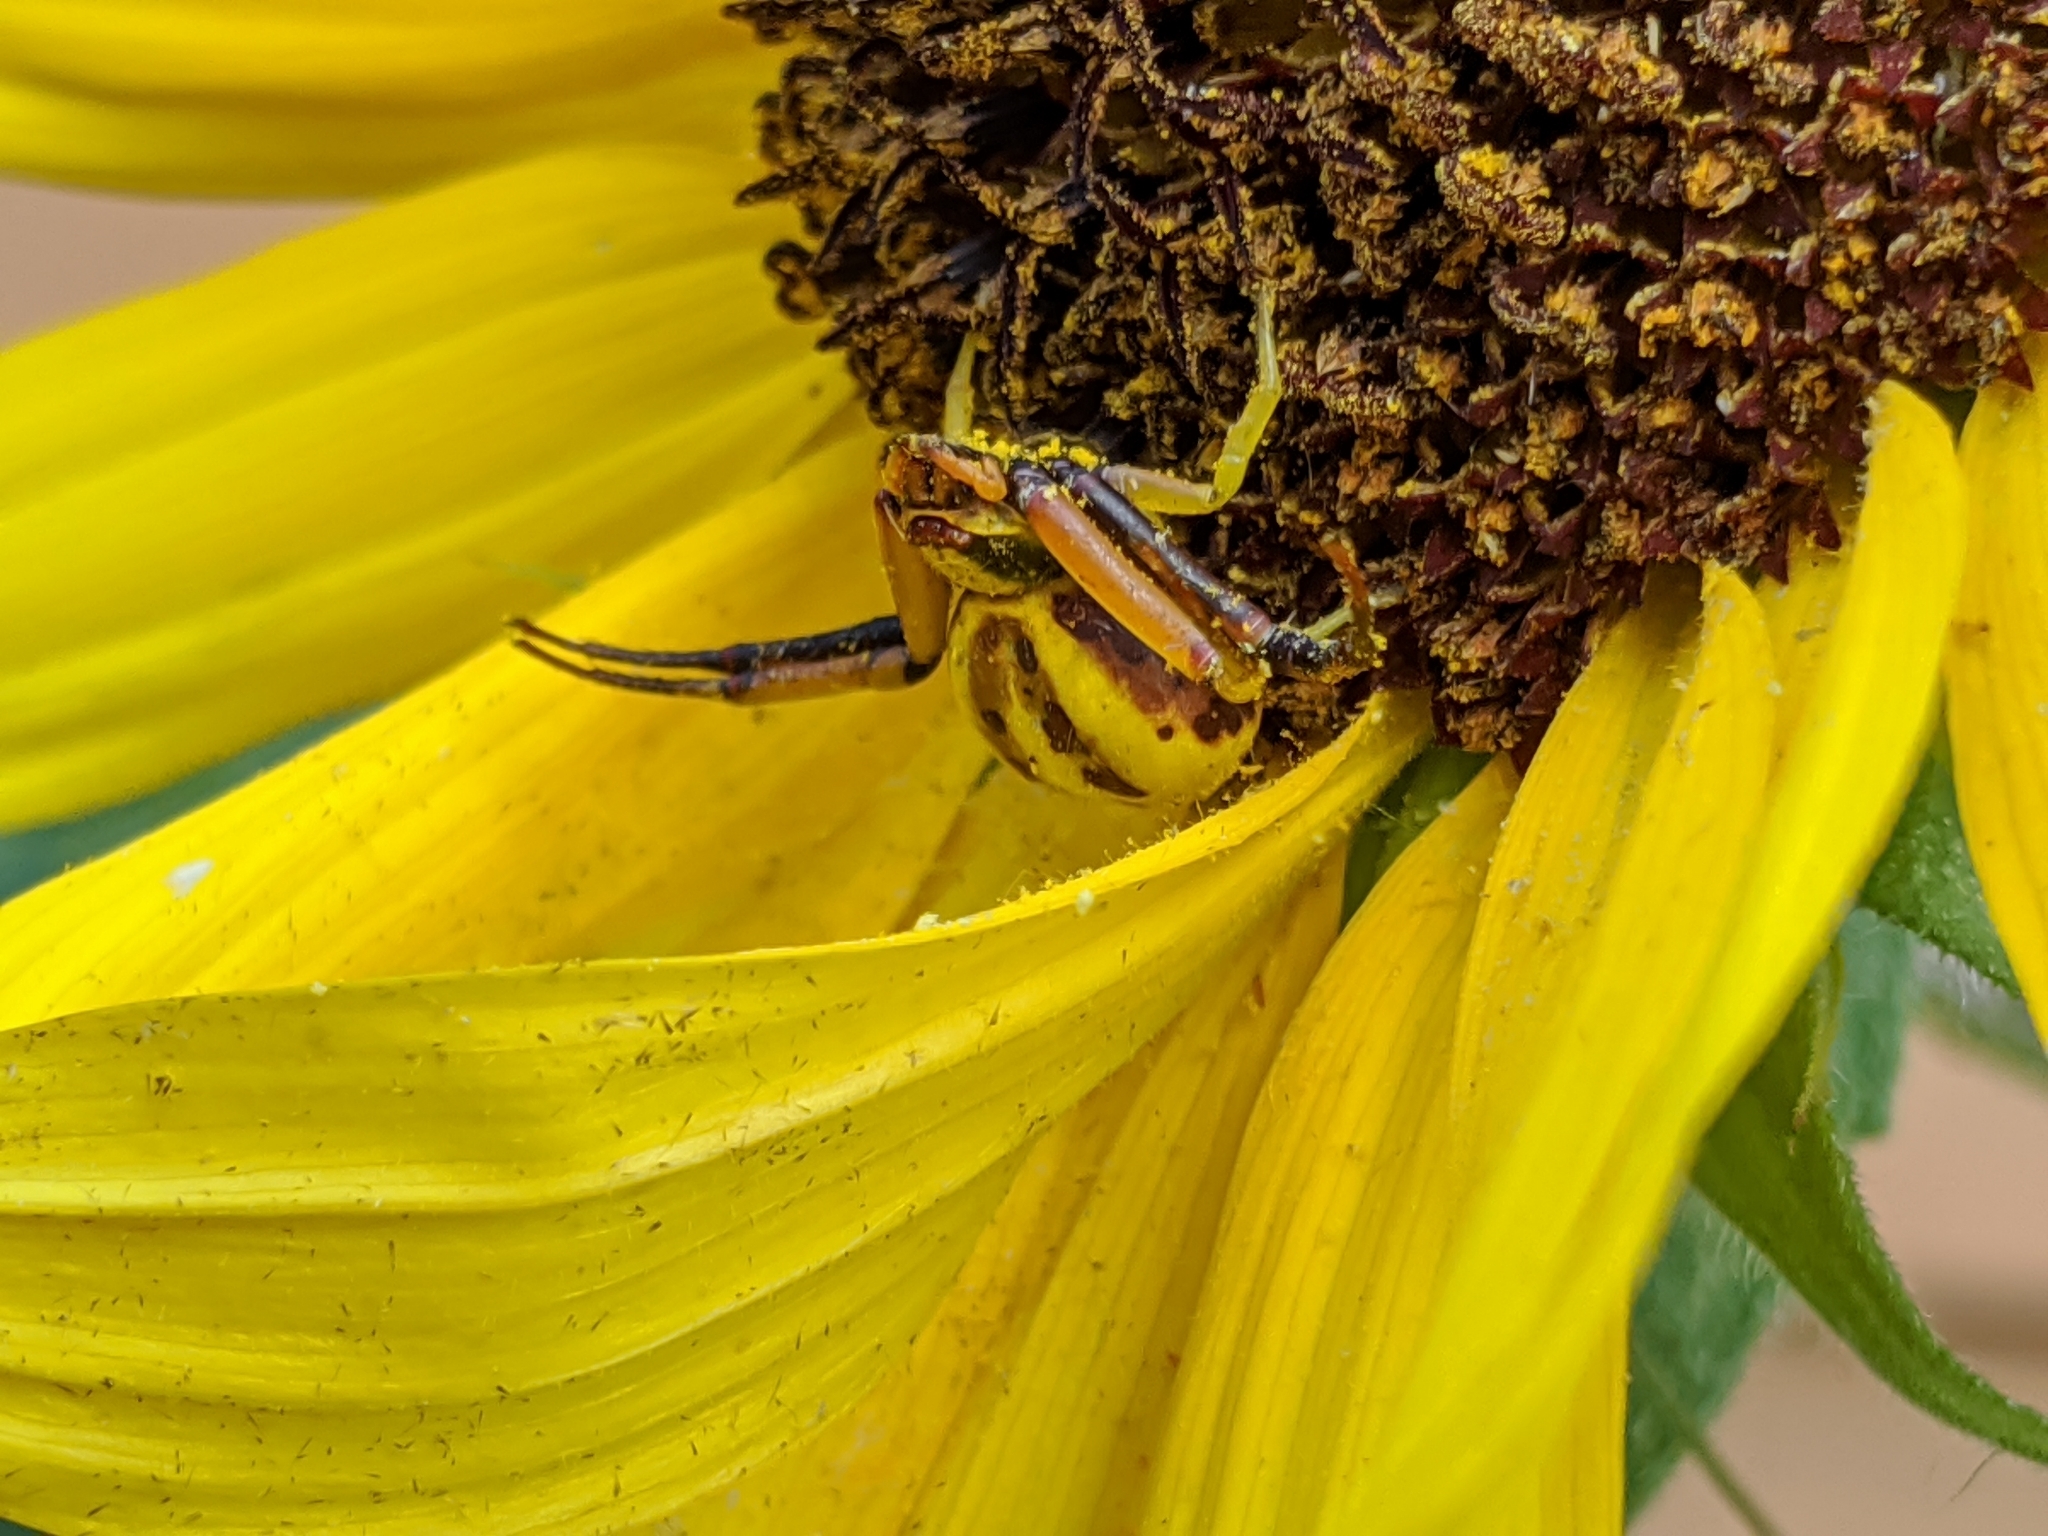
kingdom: Animalia
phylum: Arthropoda
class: Arachnida
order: Araneae
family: Thomisidae
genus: Misumenoides
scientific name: Misumenoides formosipes
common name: White-banded crab spider
